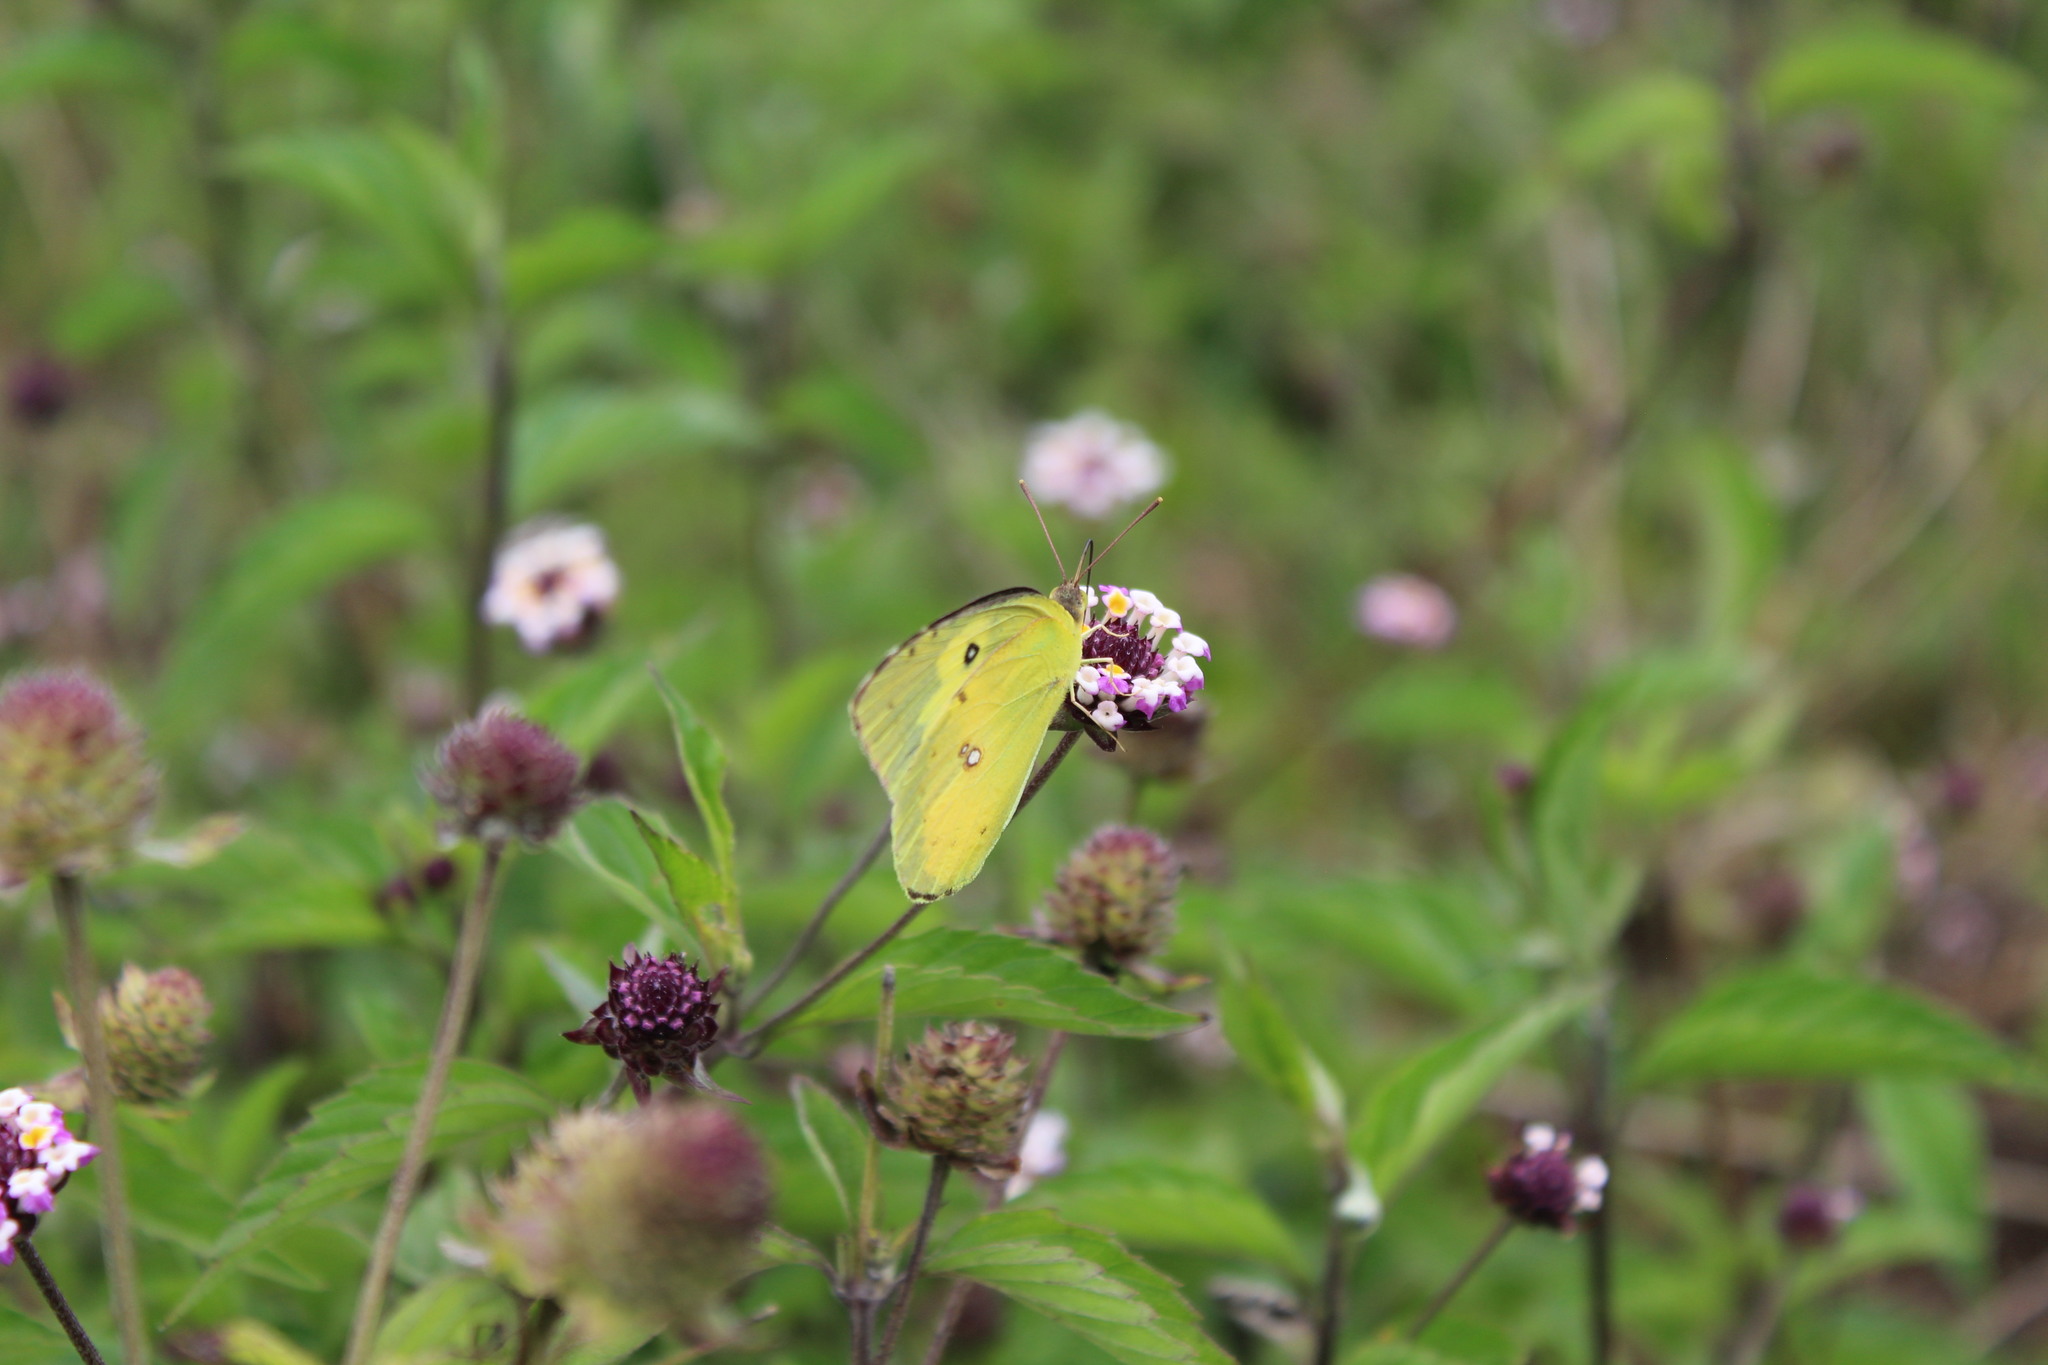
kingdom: Animalia
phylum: Arthropoda
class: Insecta
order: Lepidoptera
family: Pieridae
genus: Zerene
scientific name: Zerene cesonia
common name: Southern dogface
